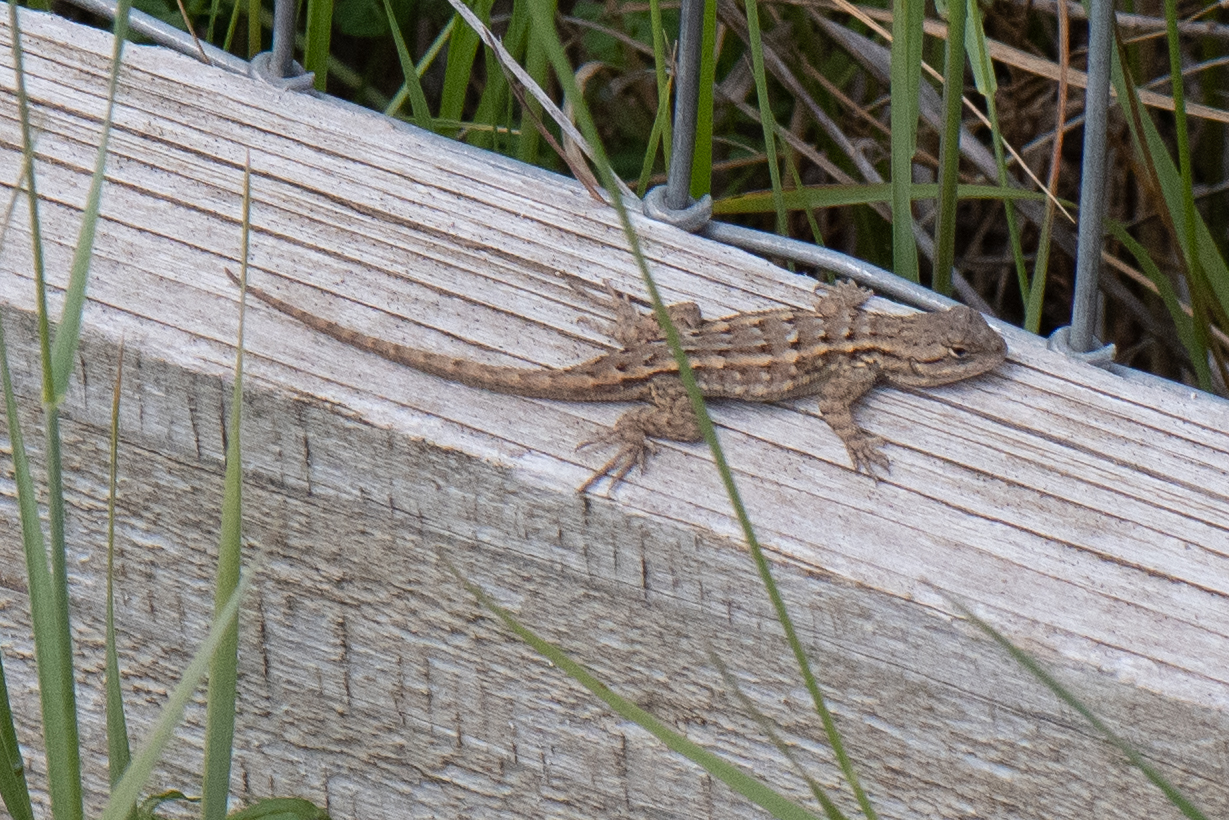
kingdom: Animalia
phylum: Chordata
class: Squamata
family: Phrynosomatidae
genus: Sceloporus
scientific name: Sceloporus occidentalis
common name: Western fence lizard
